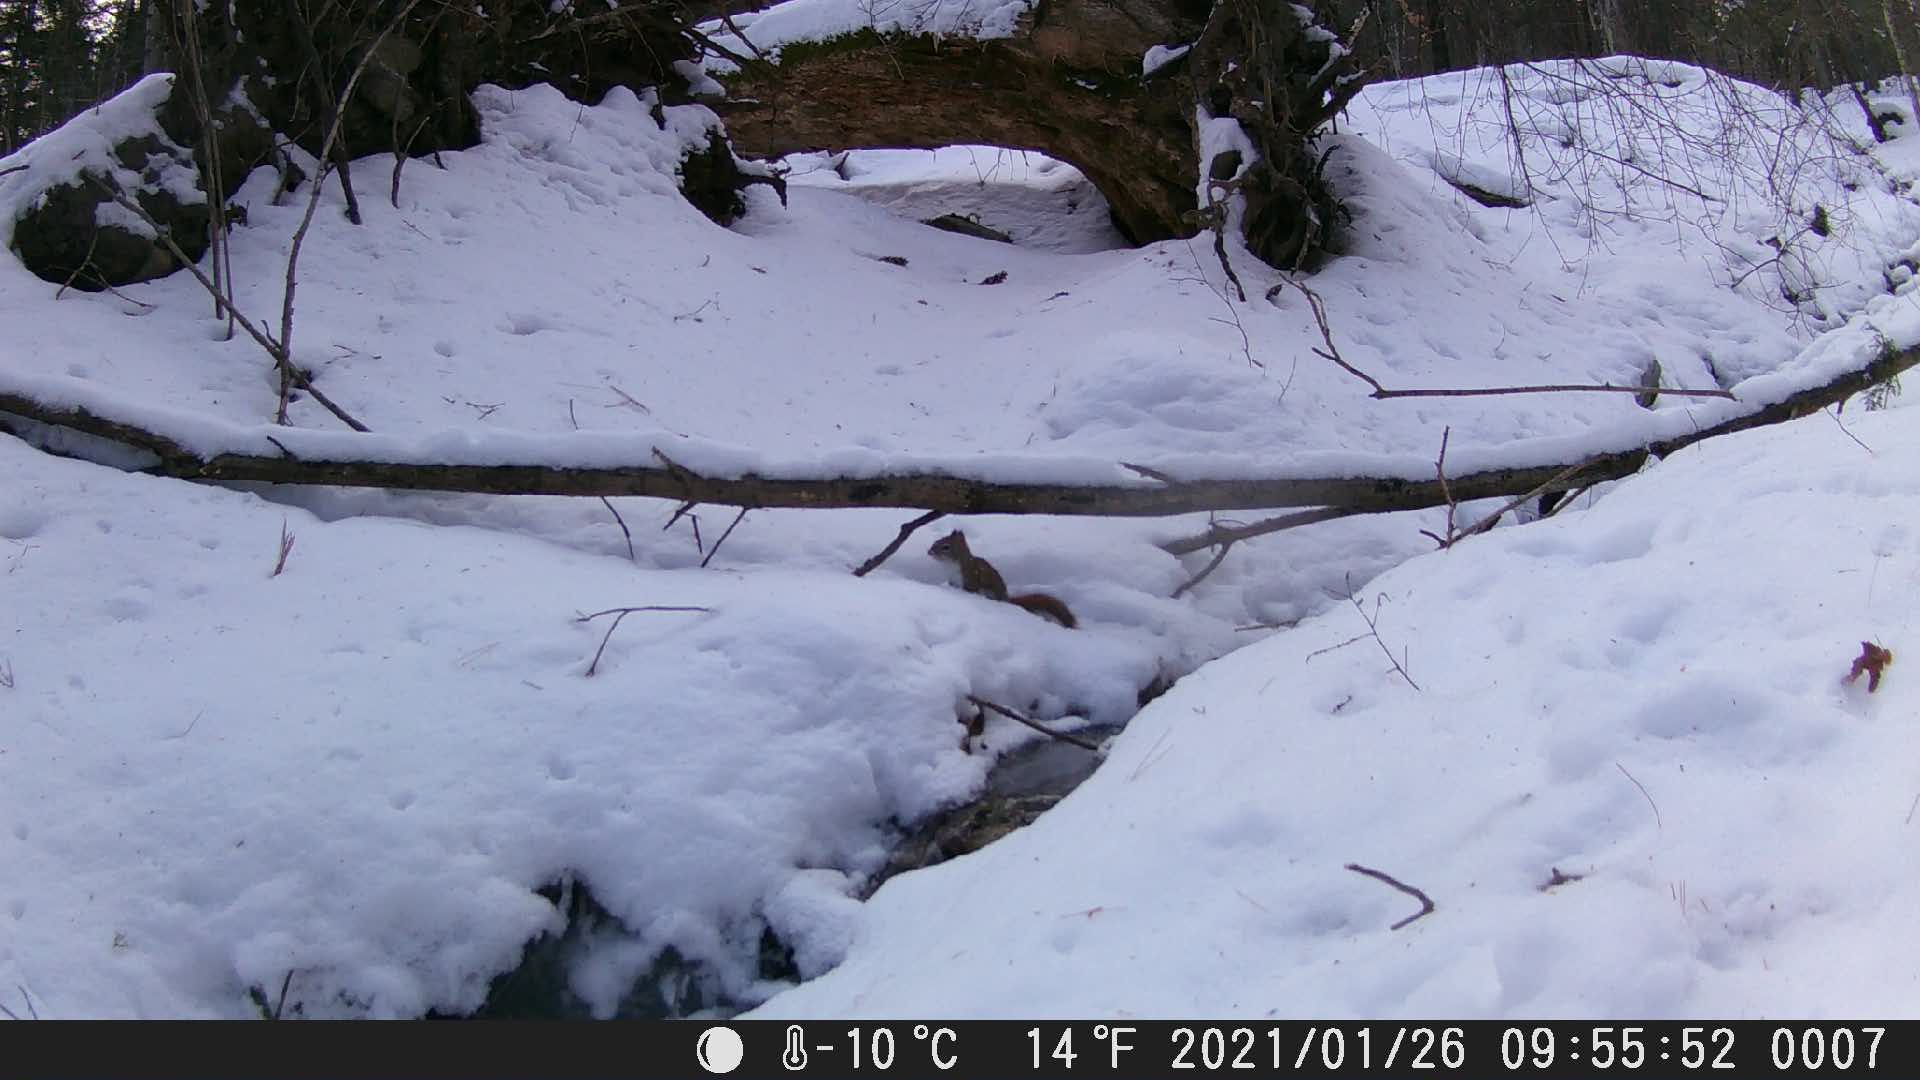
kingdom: Animalia
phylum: Chordata
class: Mammalia
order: Rodentia
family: Sciuridae
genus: Tamiasciurus
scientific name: Tamiasciurus hudsonicus
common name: Red squirrel
